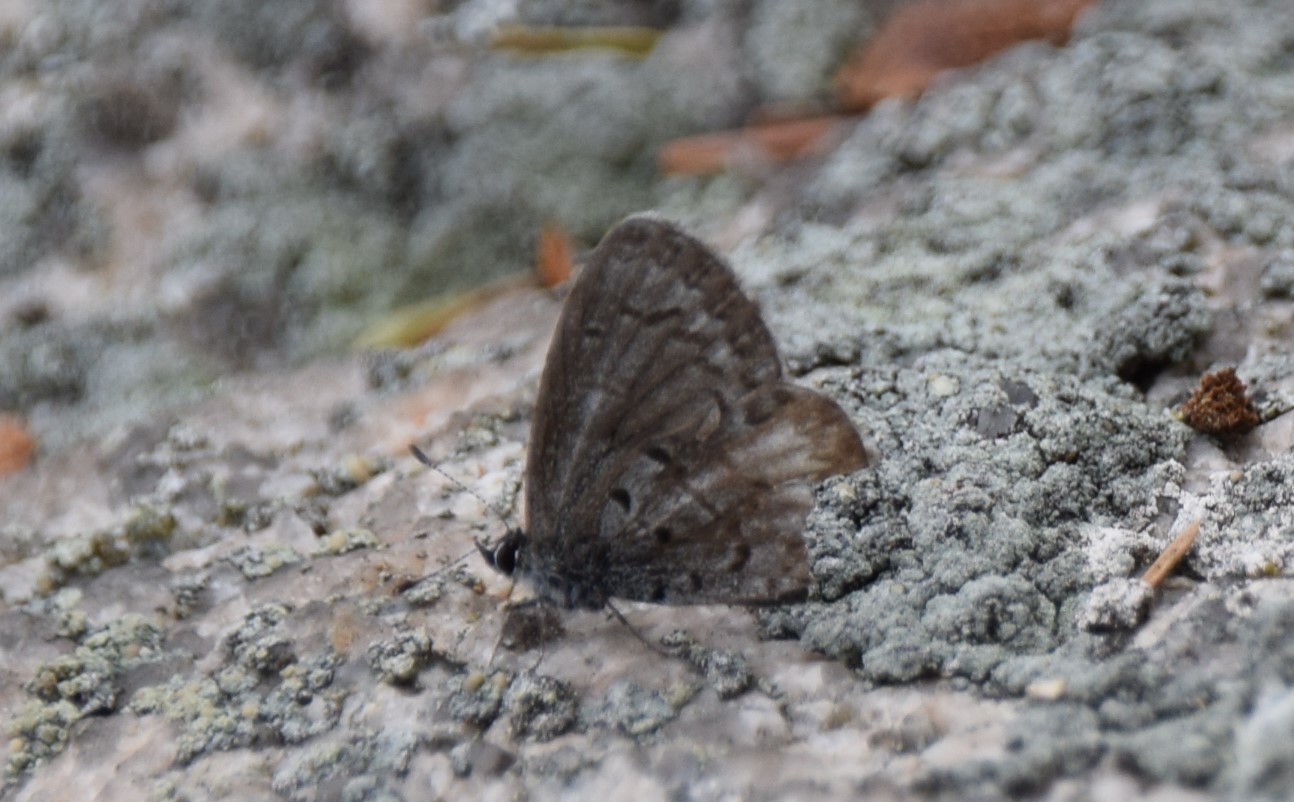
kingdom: Animalia
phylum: Arthropoda
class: Insecta
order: Lepidoptera
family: Lycaenidae
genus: Celastrina
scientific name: Celastrina lucia
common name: Lucia azure
